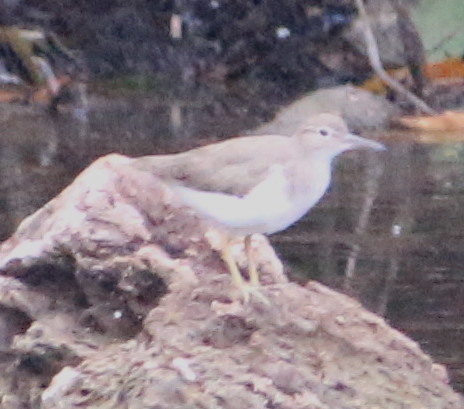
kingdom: Animalia
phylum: Chordata
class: Aves
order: Charadriiformes
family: Scolopacidae
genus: Actitis
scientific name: Actitis macularius
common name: Spotted sandpiper
